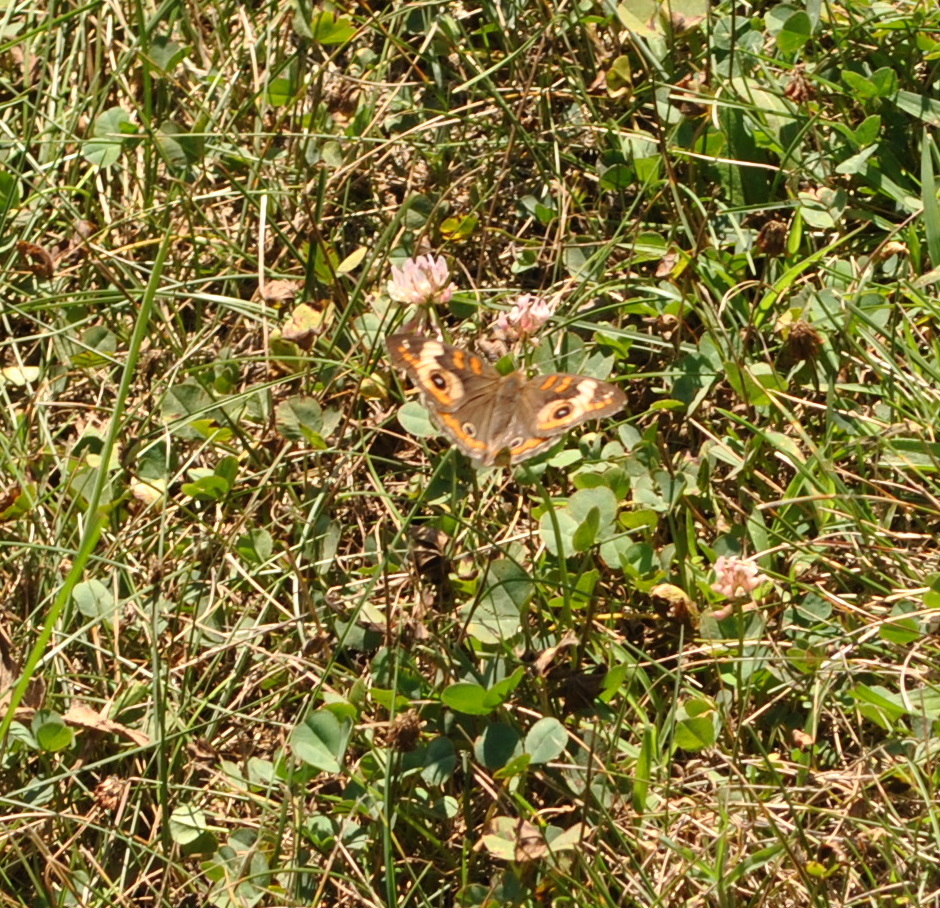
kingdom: Animalia
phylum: Arthropoda
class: Insecta
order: Lepidoptera
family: Nymphalidae
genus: Junonia
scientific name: Junonia coenia
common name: Common buckeye
